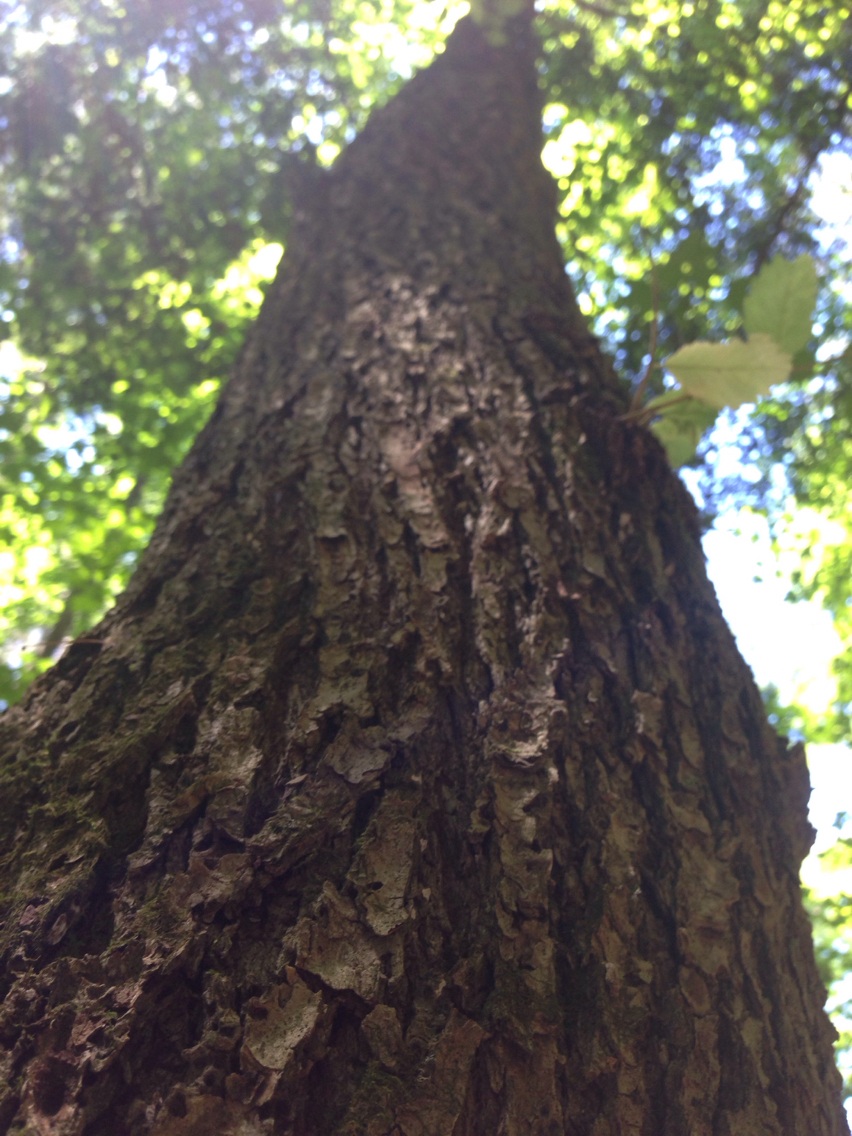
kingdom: Plantae
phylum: Tracheophyta
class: Magnoliopsida
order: Rosales
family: Ulmaceae
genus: Ulmus
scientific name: Ulmus americana
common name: American elm
